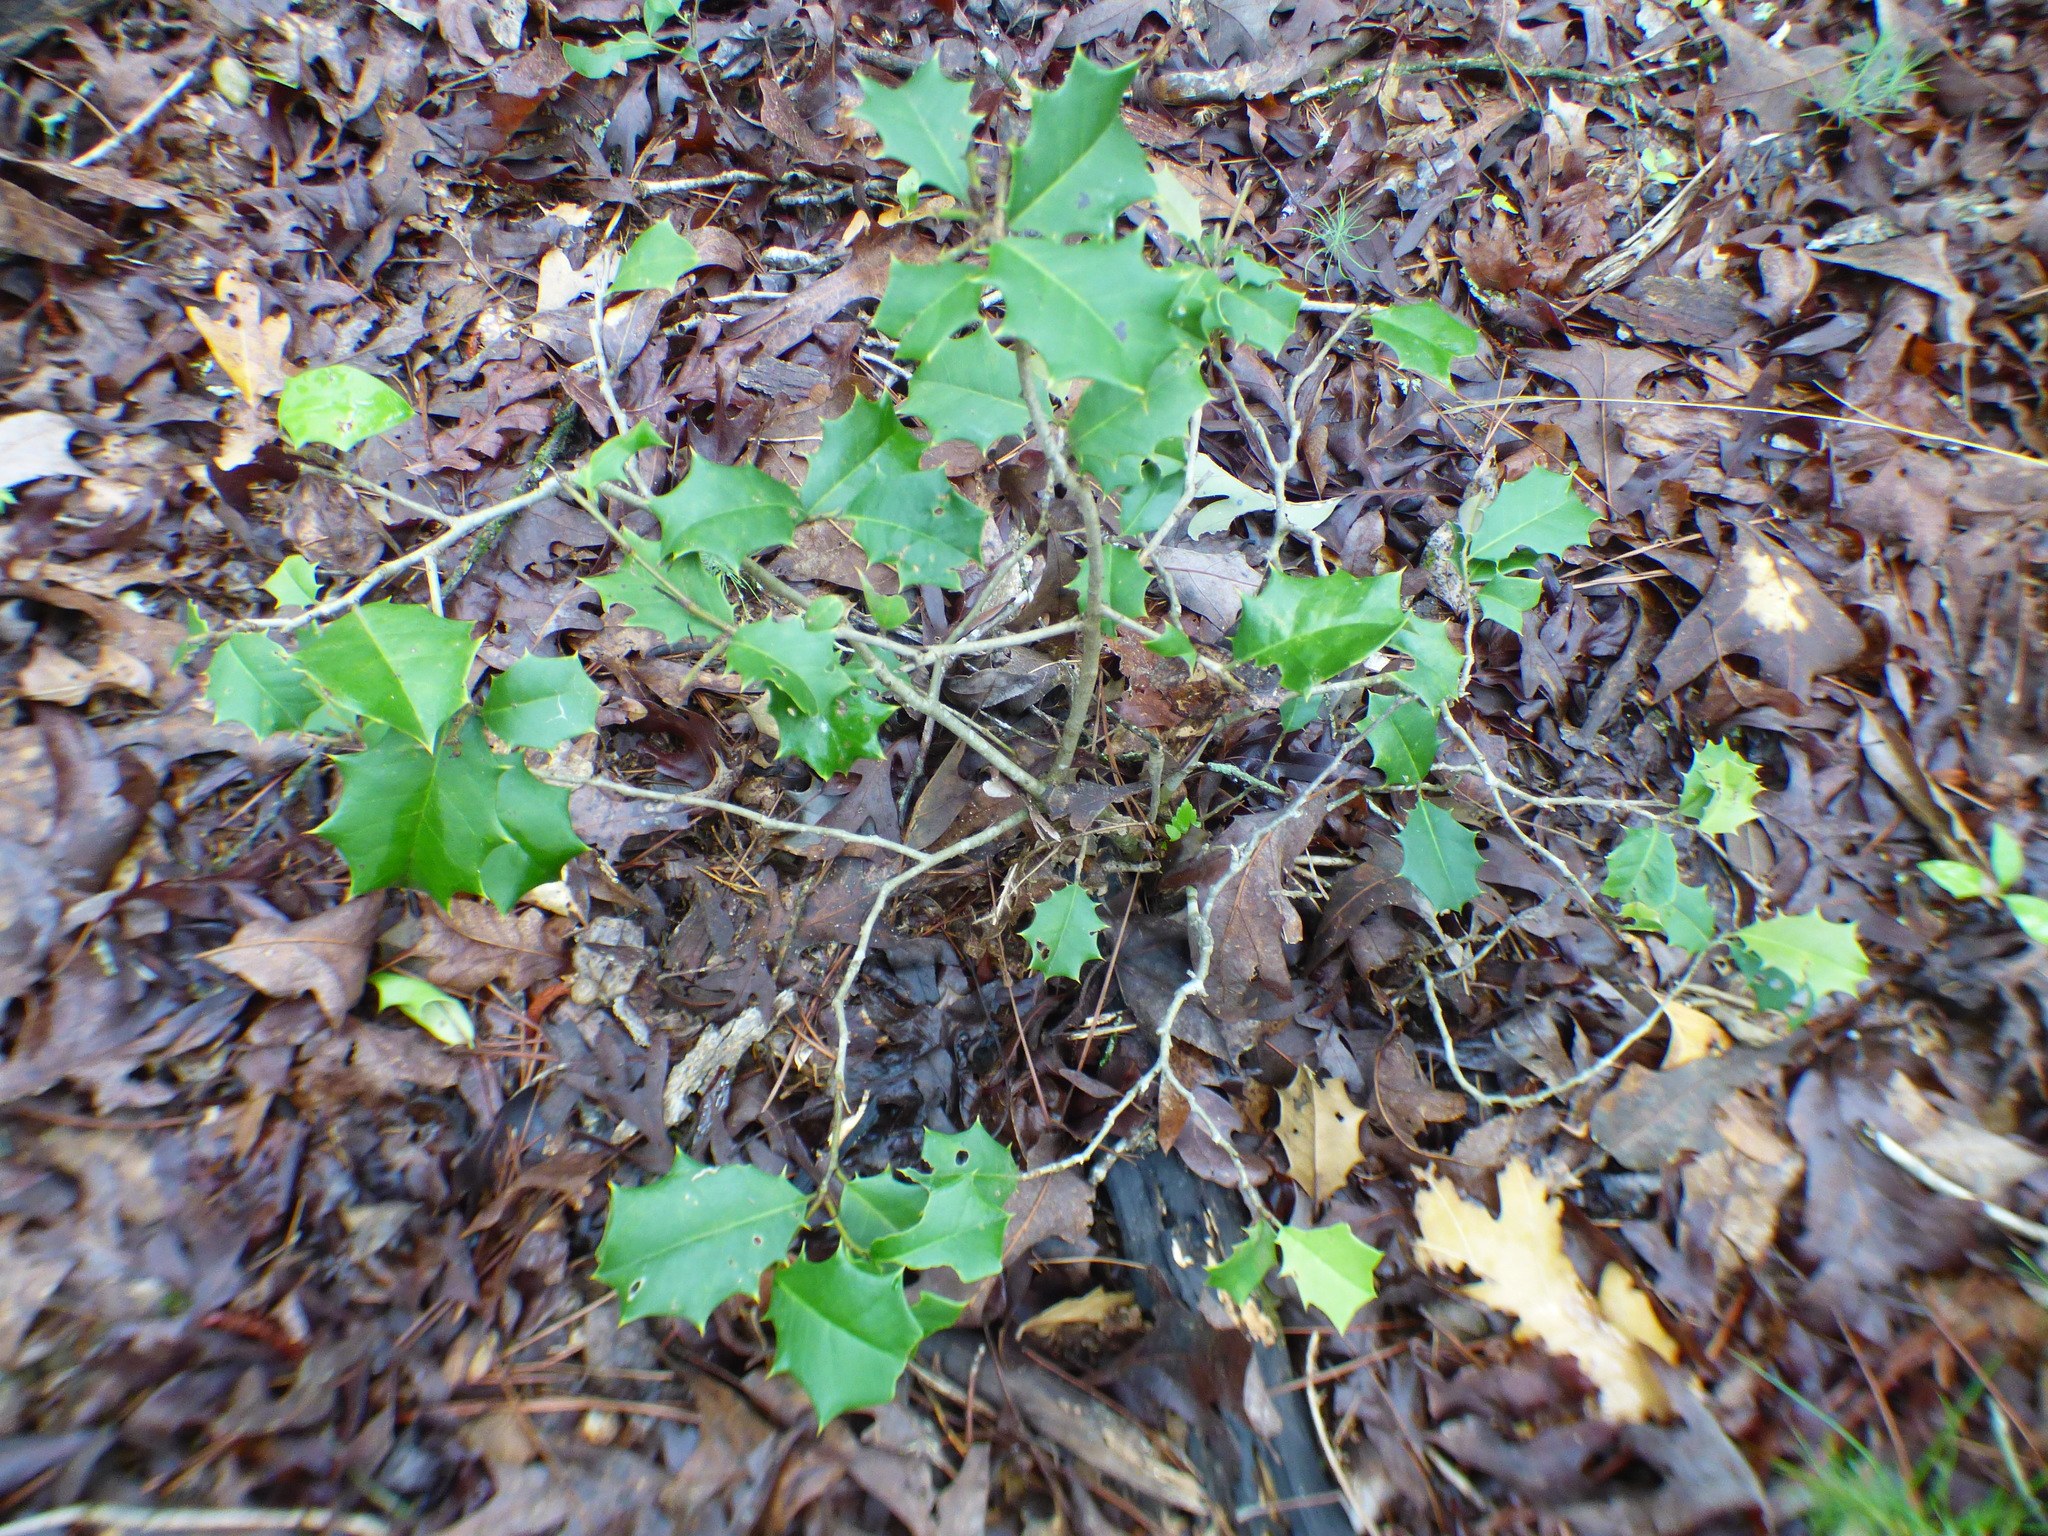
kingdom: Plantae
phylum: Tracheophyta
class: Magnoliopsida
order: Aquifoliales
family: Aquifoliaceae
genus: Ilex
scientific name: Ilex opaca
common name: American holly
